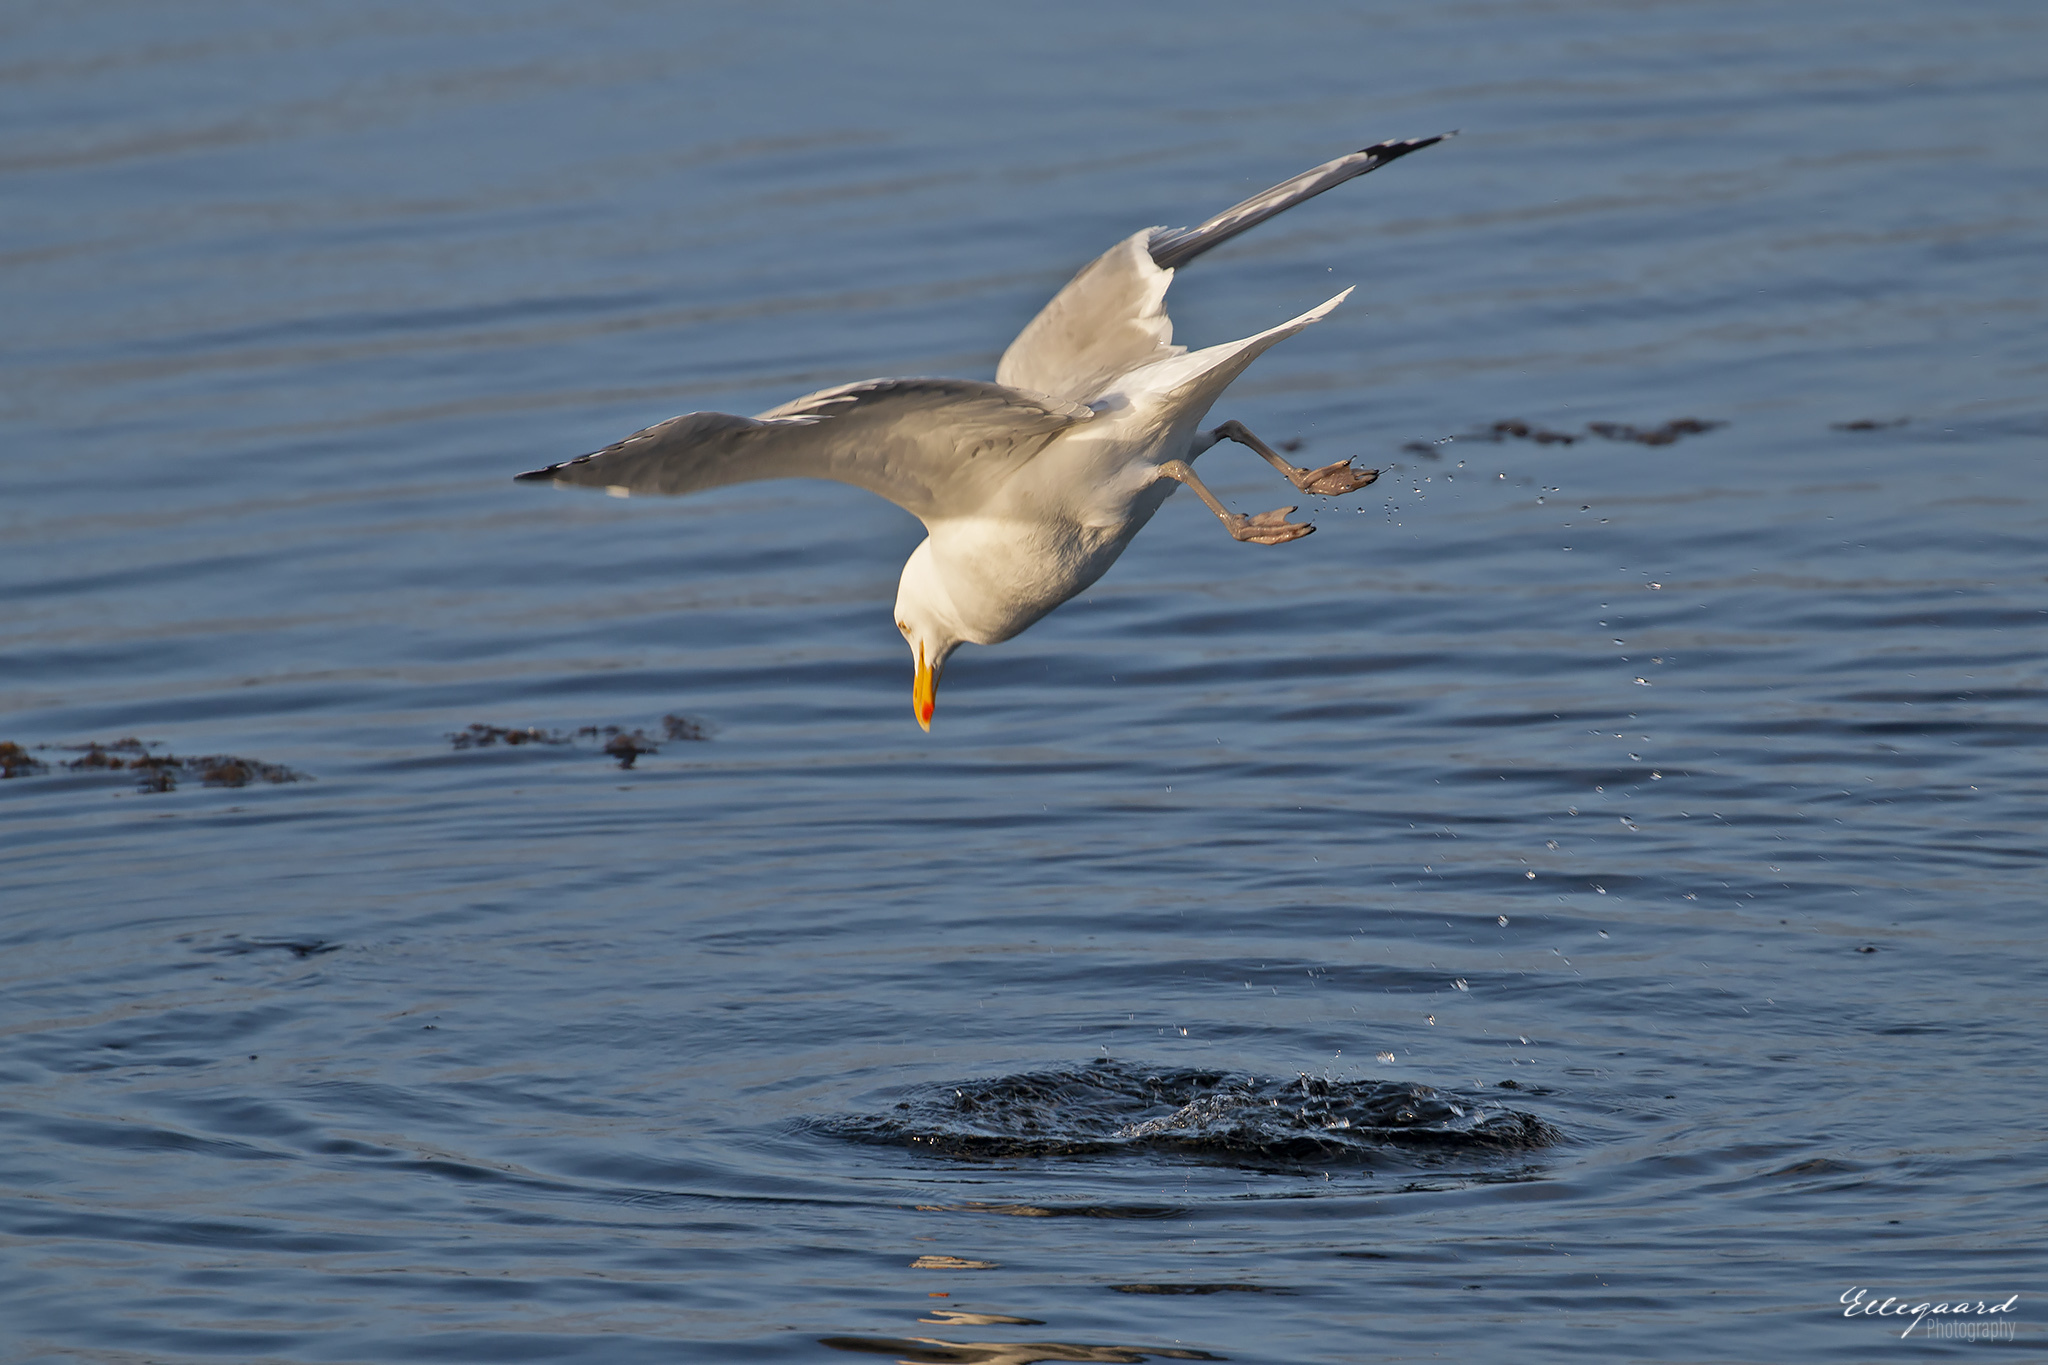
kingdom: Animalia
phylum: Chordata
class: Aves
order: Charadriiformes
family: Laridae
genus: Larus
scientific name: Larus argentatus
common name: Herring gull
